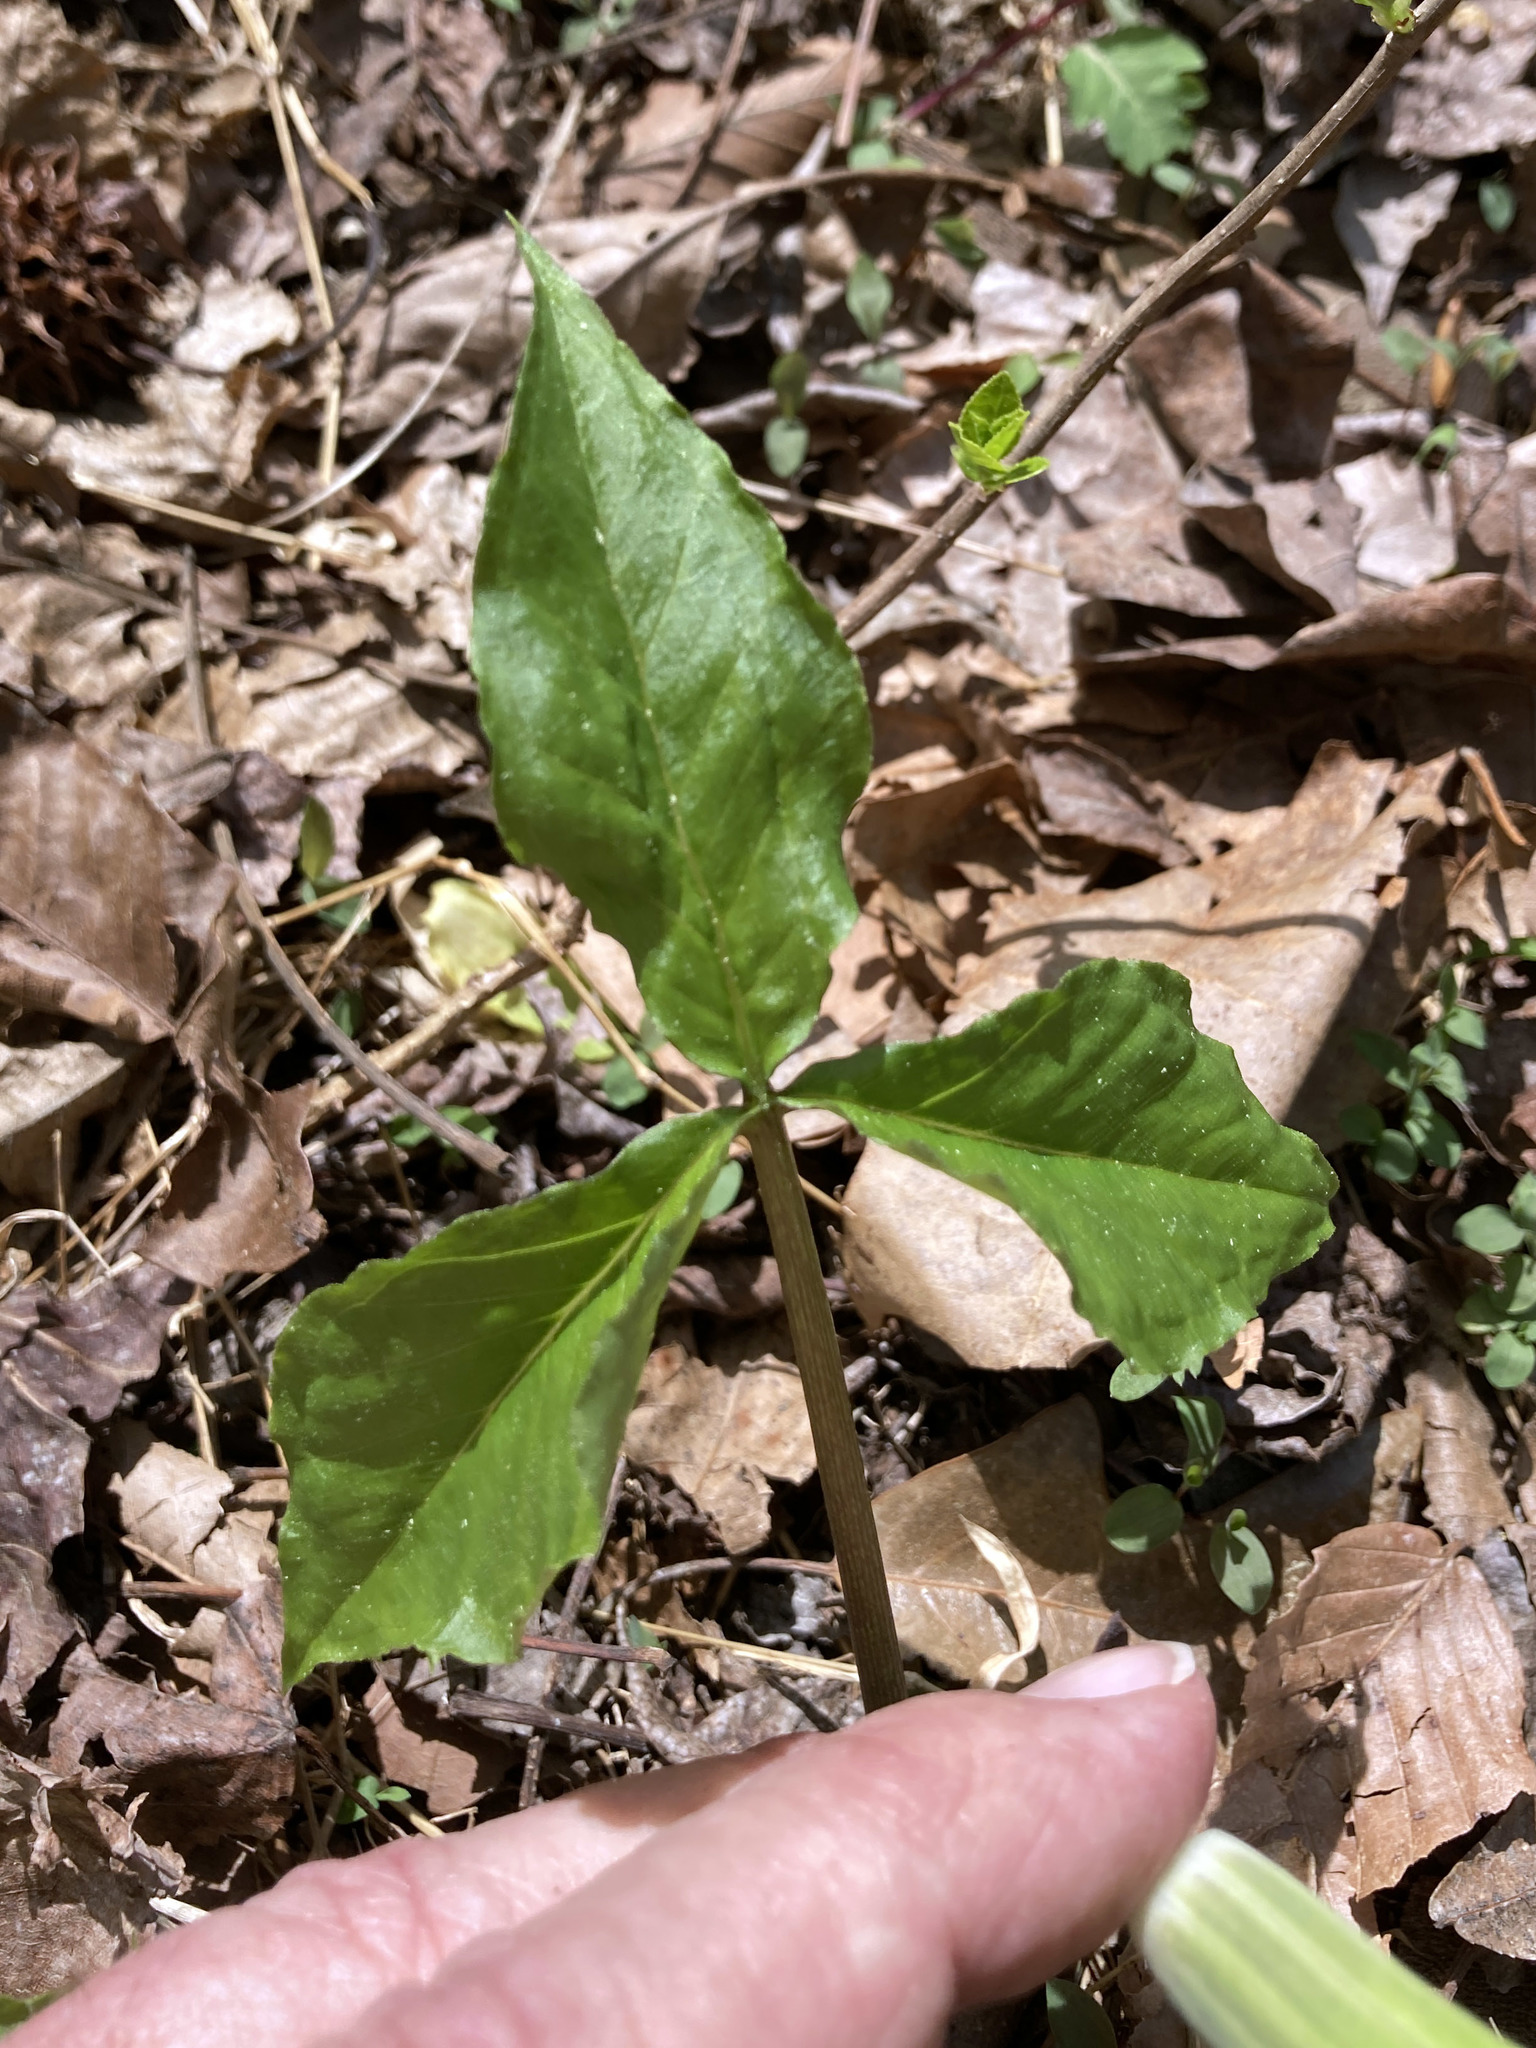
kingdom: Plantae
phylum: Tracheophyta
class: Liliopsida
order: Alismatales
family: Araceae
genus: Arisaema
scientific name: Arisaema triphyllum
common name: Jack-in-the-pulpit
